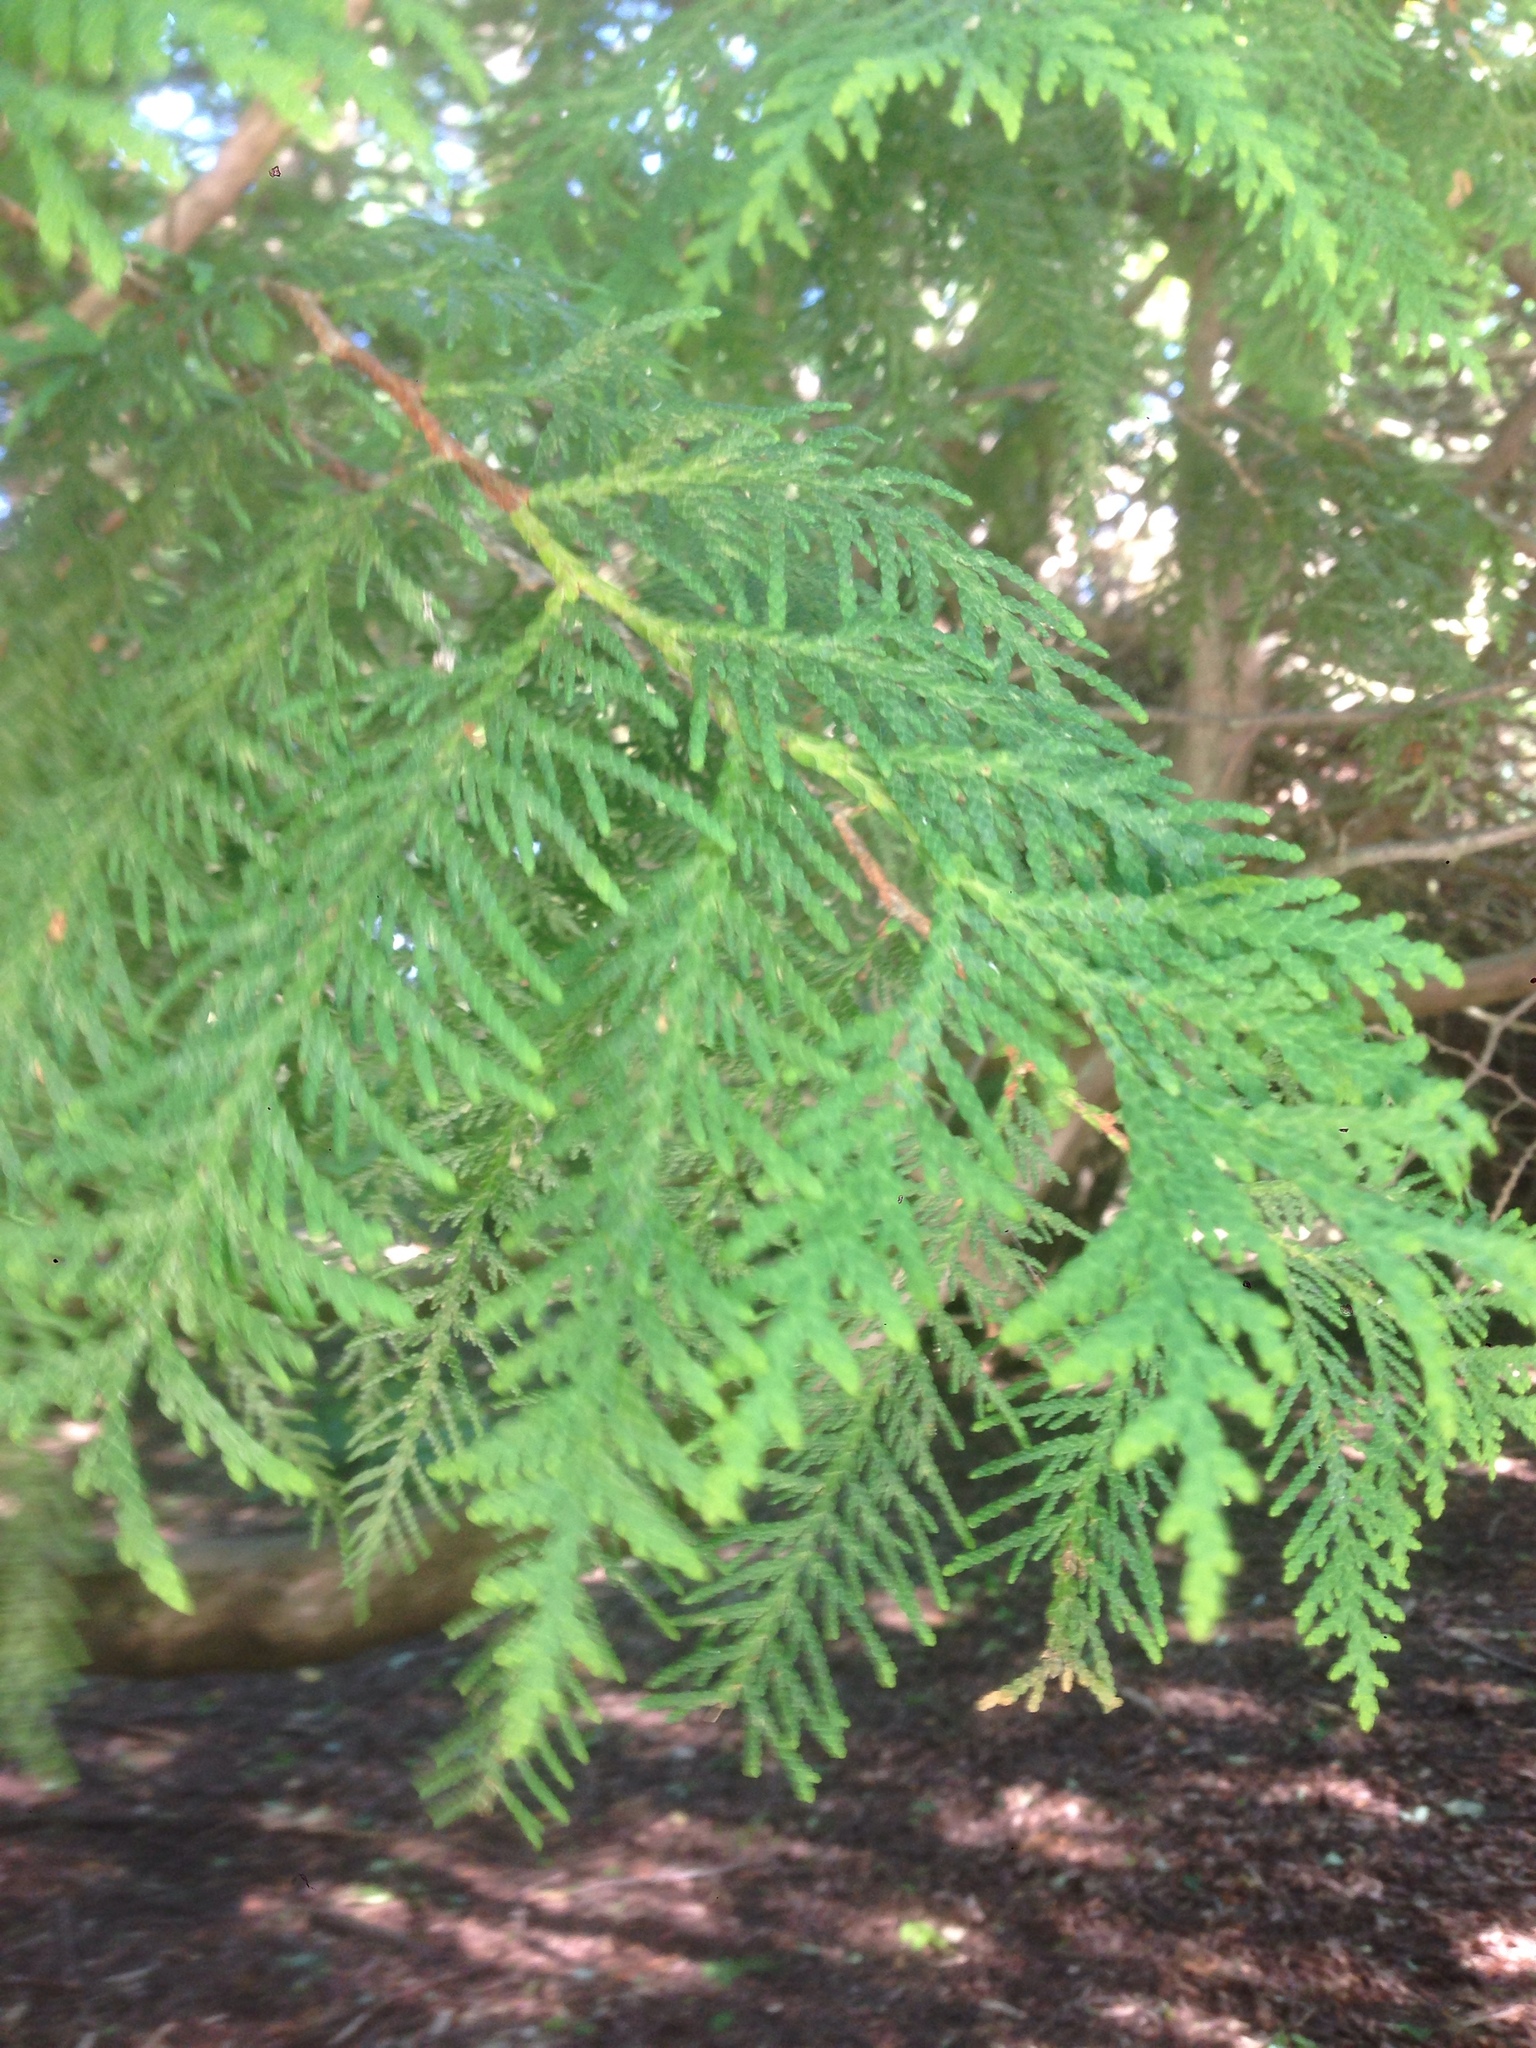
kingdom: Plantae
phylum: Tracheophyta
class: Pinopsida
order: Pinales
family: Cupressaceae
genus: Thuja
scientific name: Thuja occidentalis
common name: Northern white-cedar
